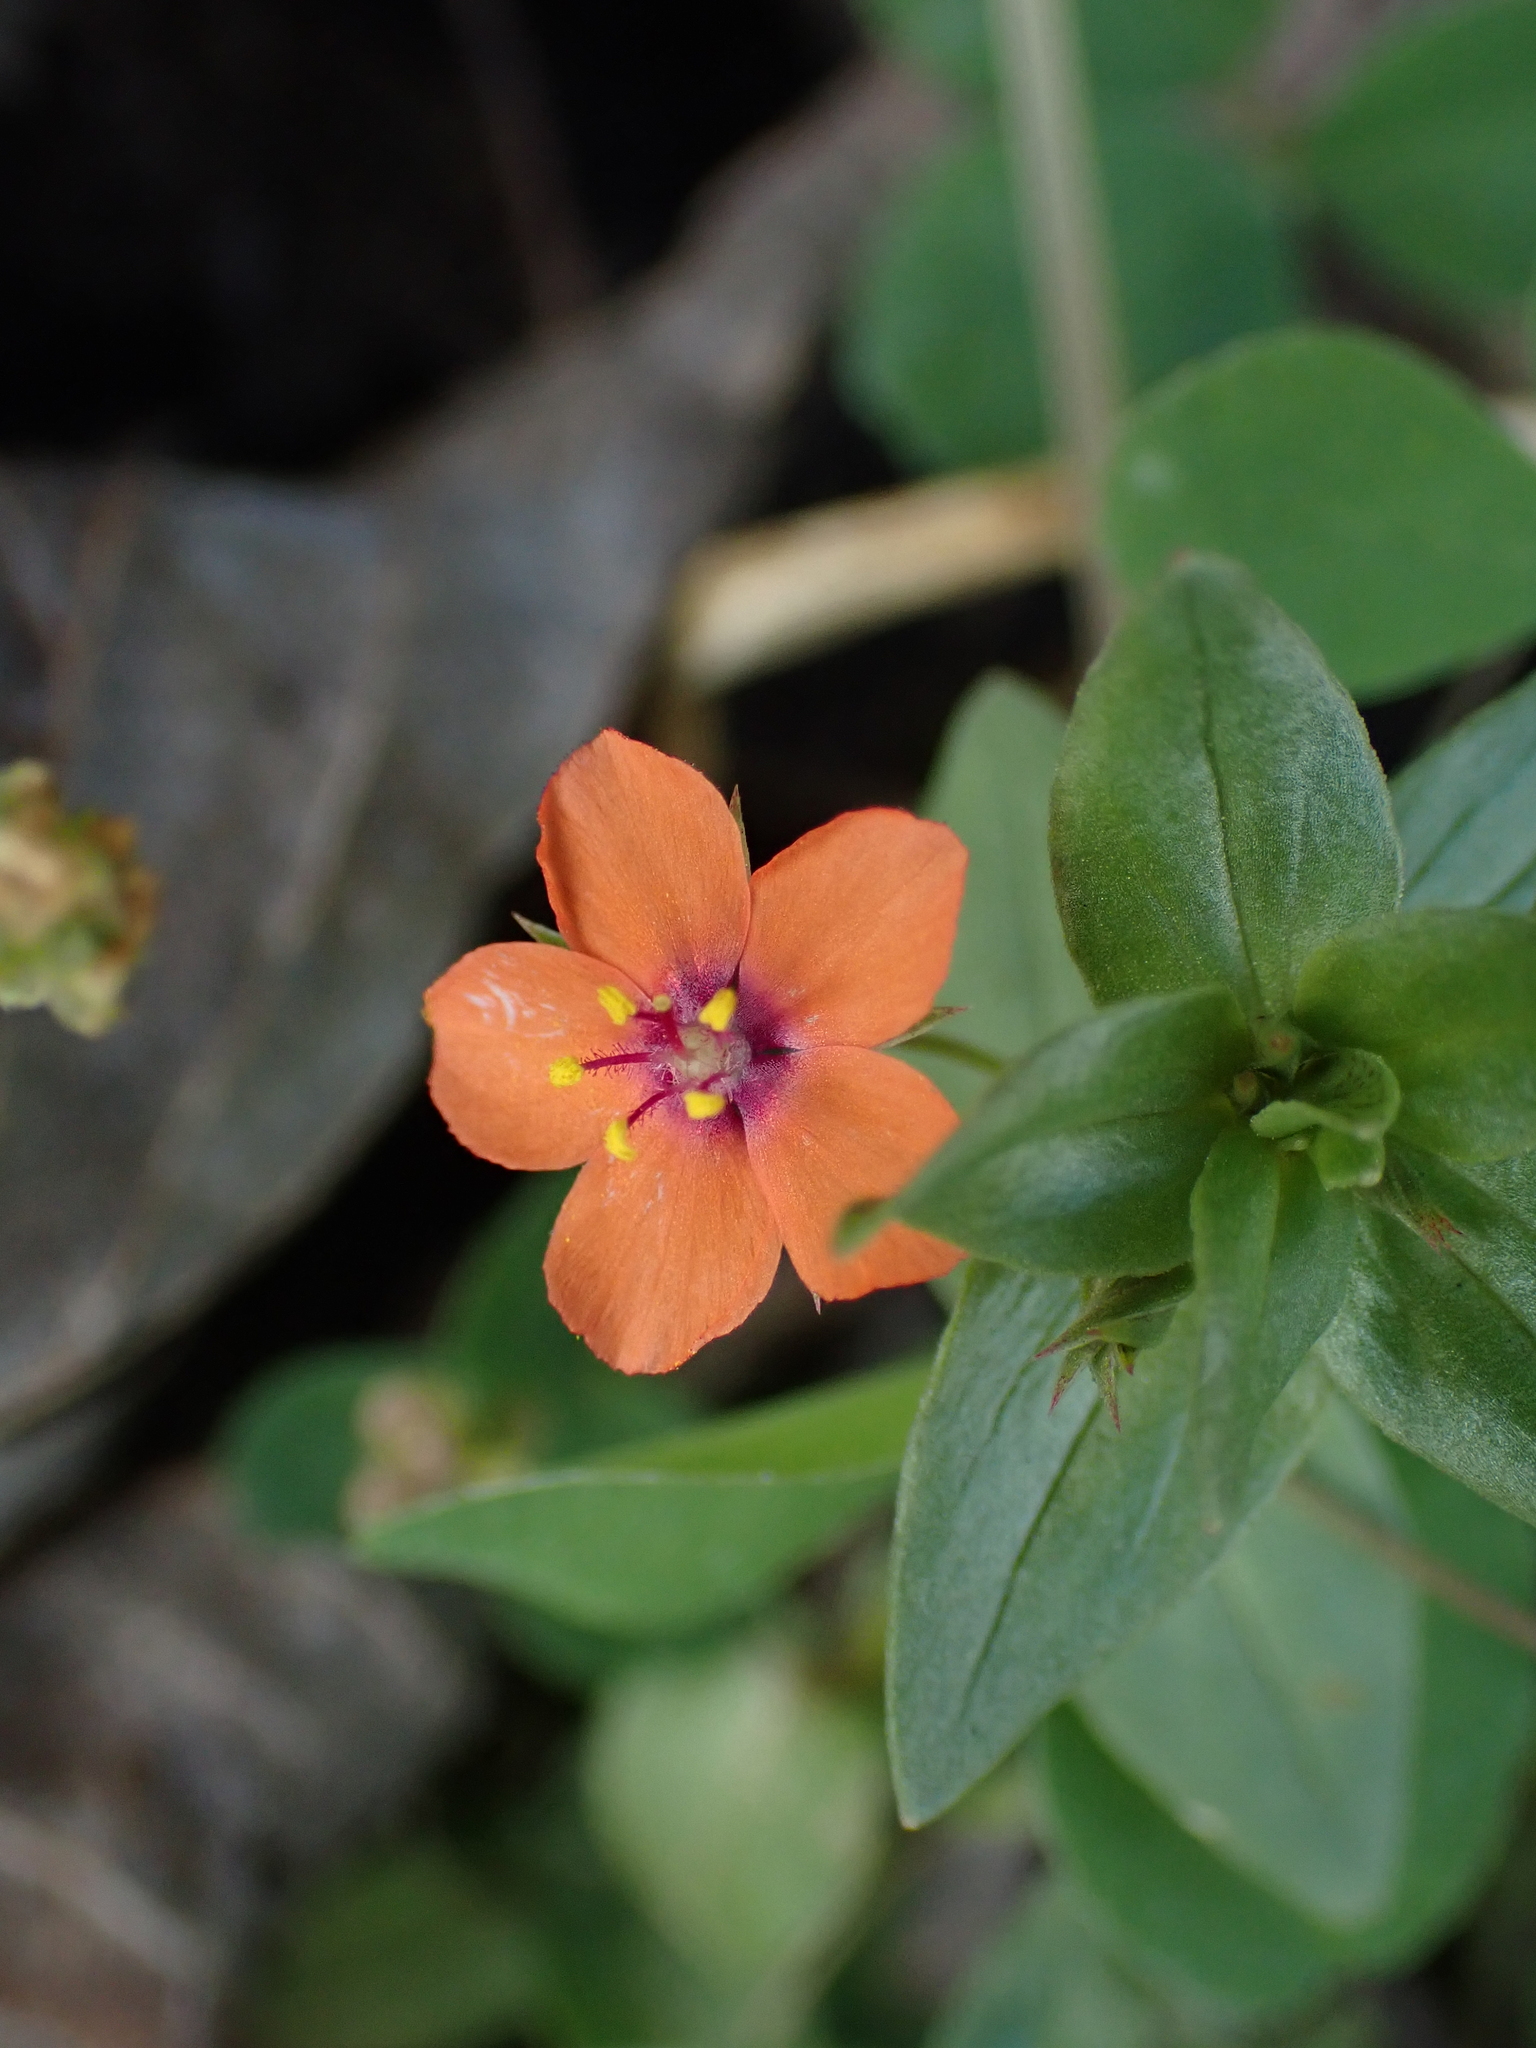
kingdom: Plantae
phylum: Tracheophyta
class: Magnoliopsida
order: Ericales
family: Primulaceae
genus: Lysimachia
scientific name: Lysimachia arvensis
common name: Scarlet pimpernel
